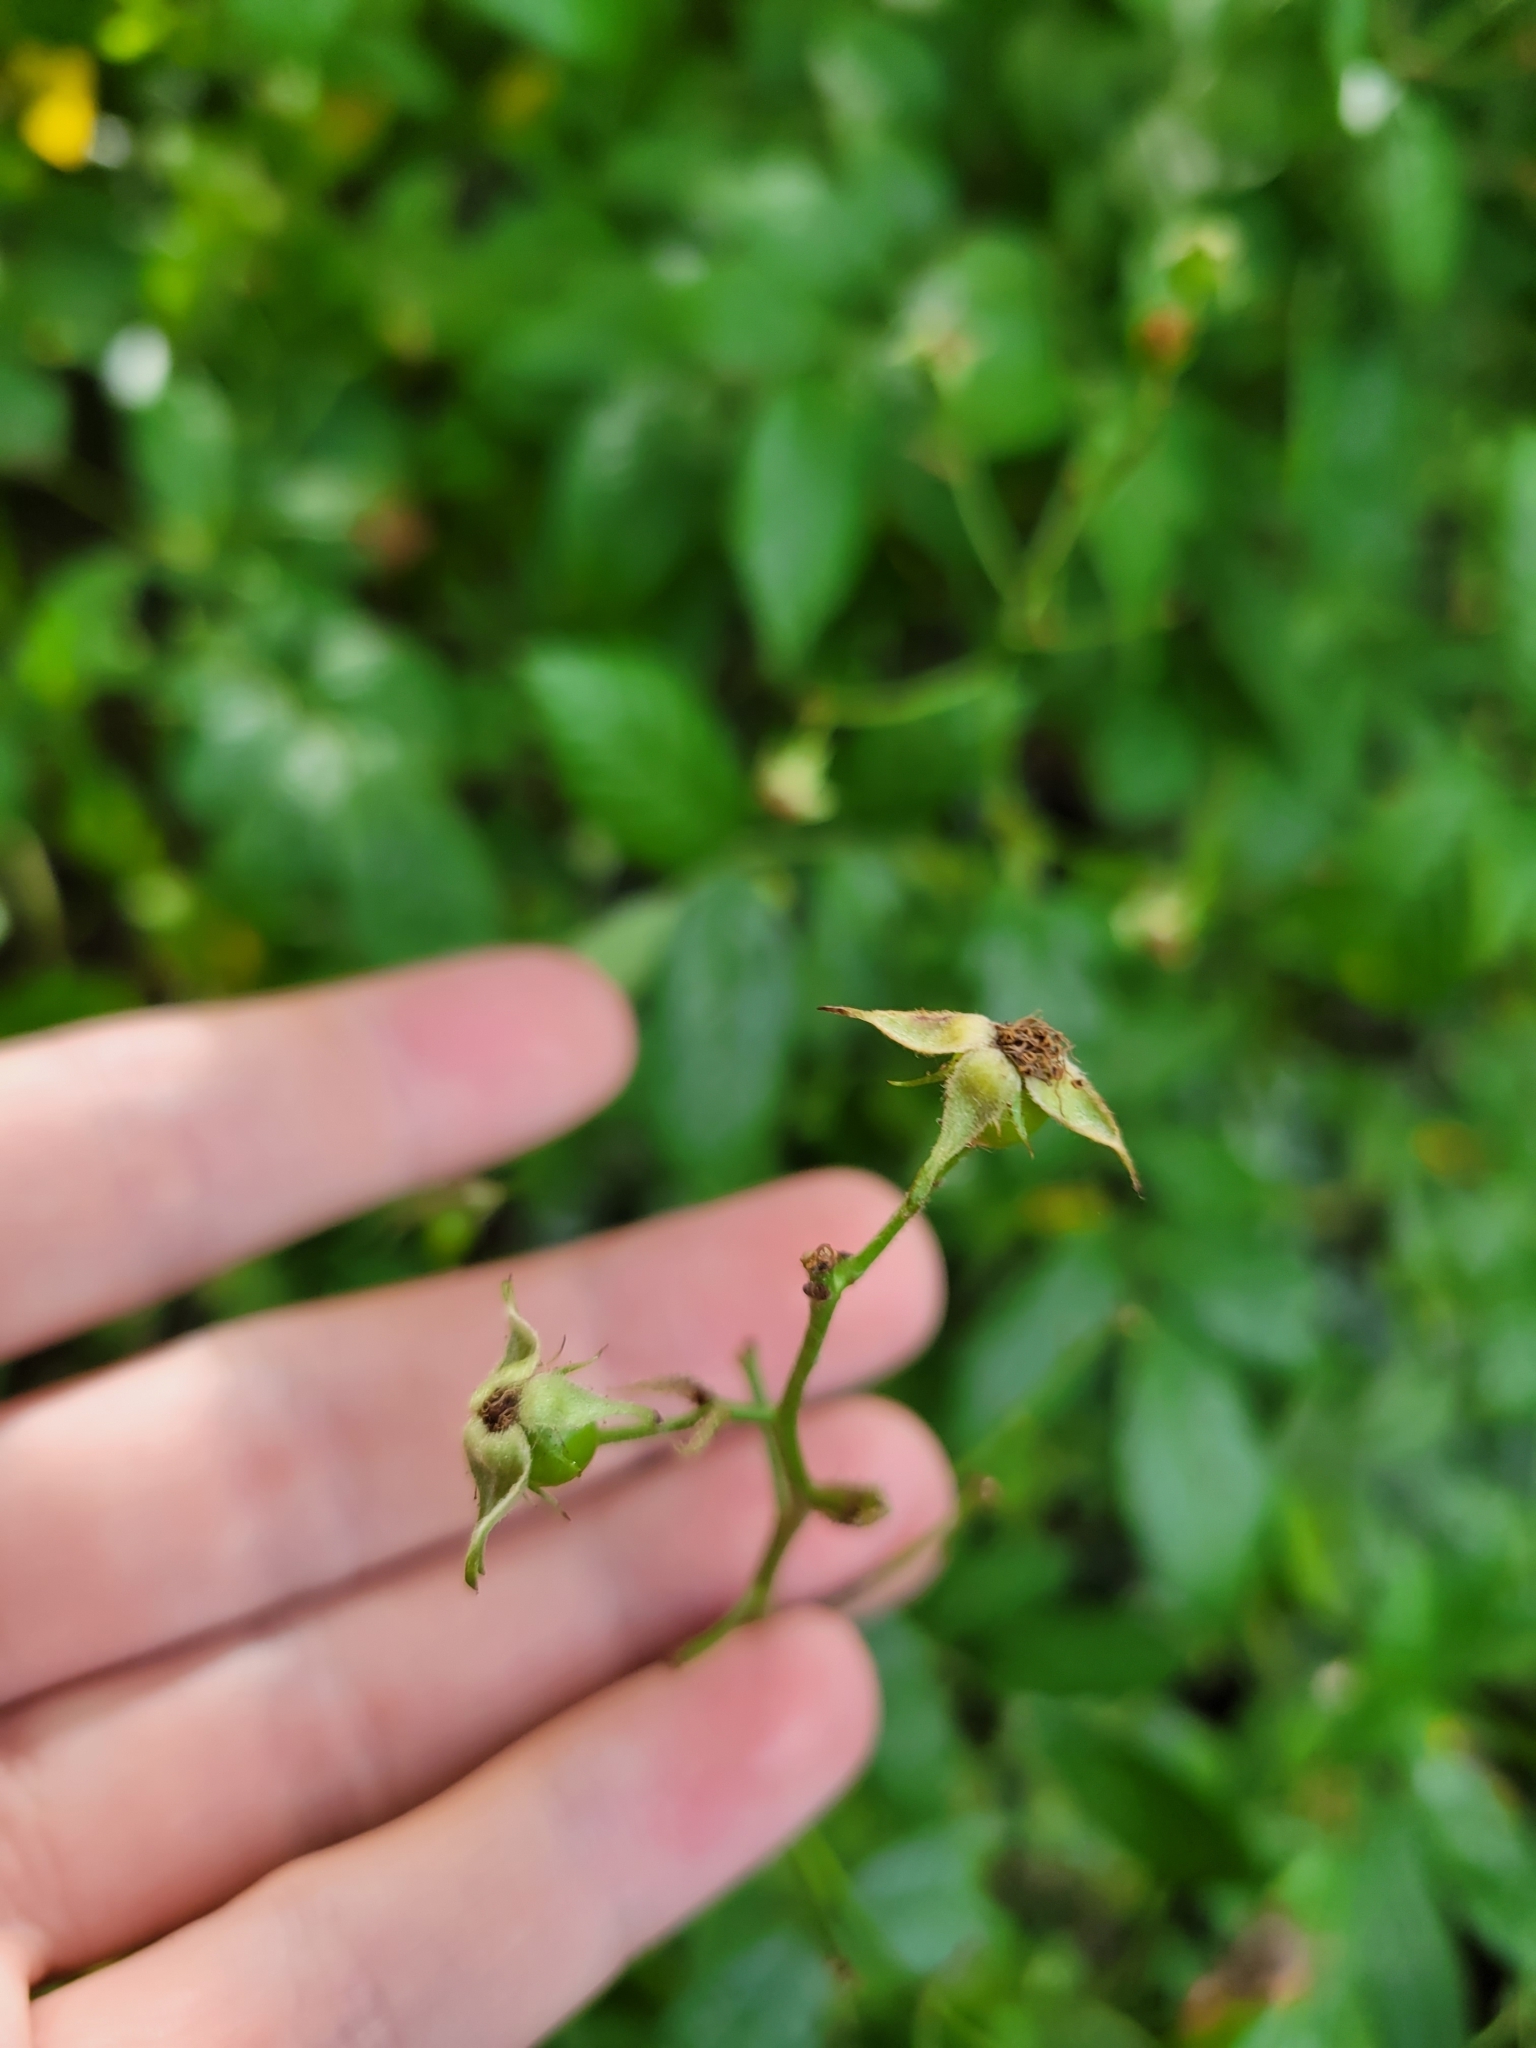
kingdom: Plantae
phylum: Tracheophyta
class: Magnoliopsida
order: Rosales
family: Rosaceae
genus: Rosa
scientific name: Rosa multiflora
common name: Multiflora rose
